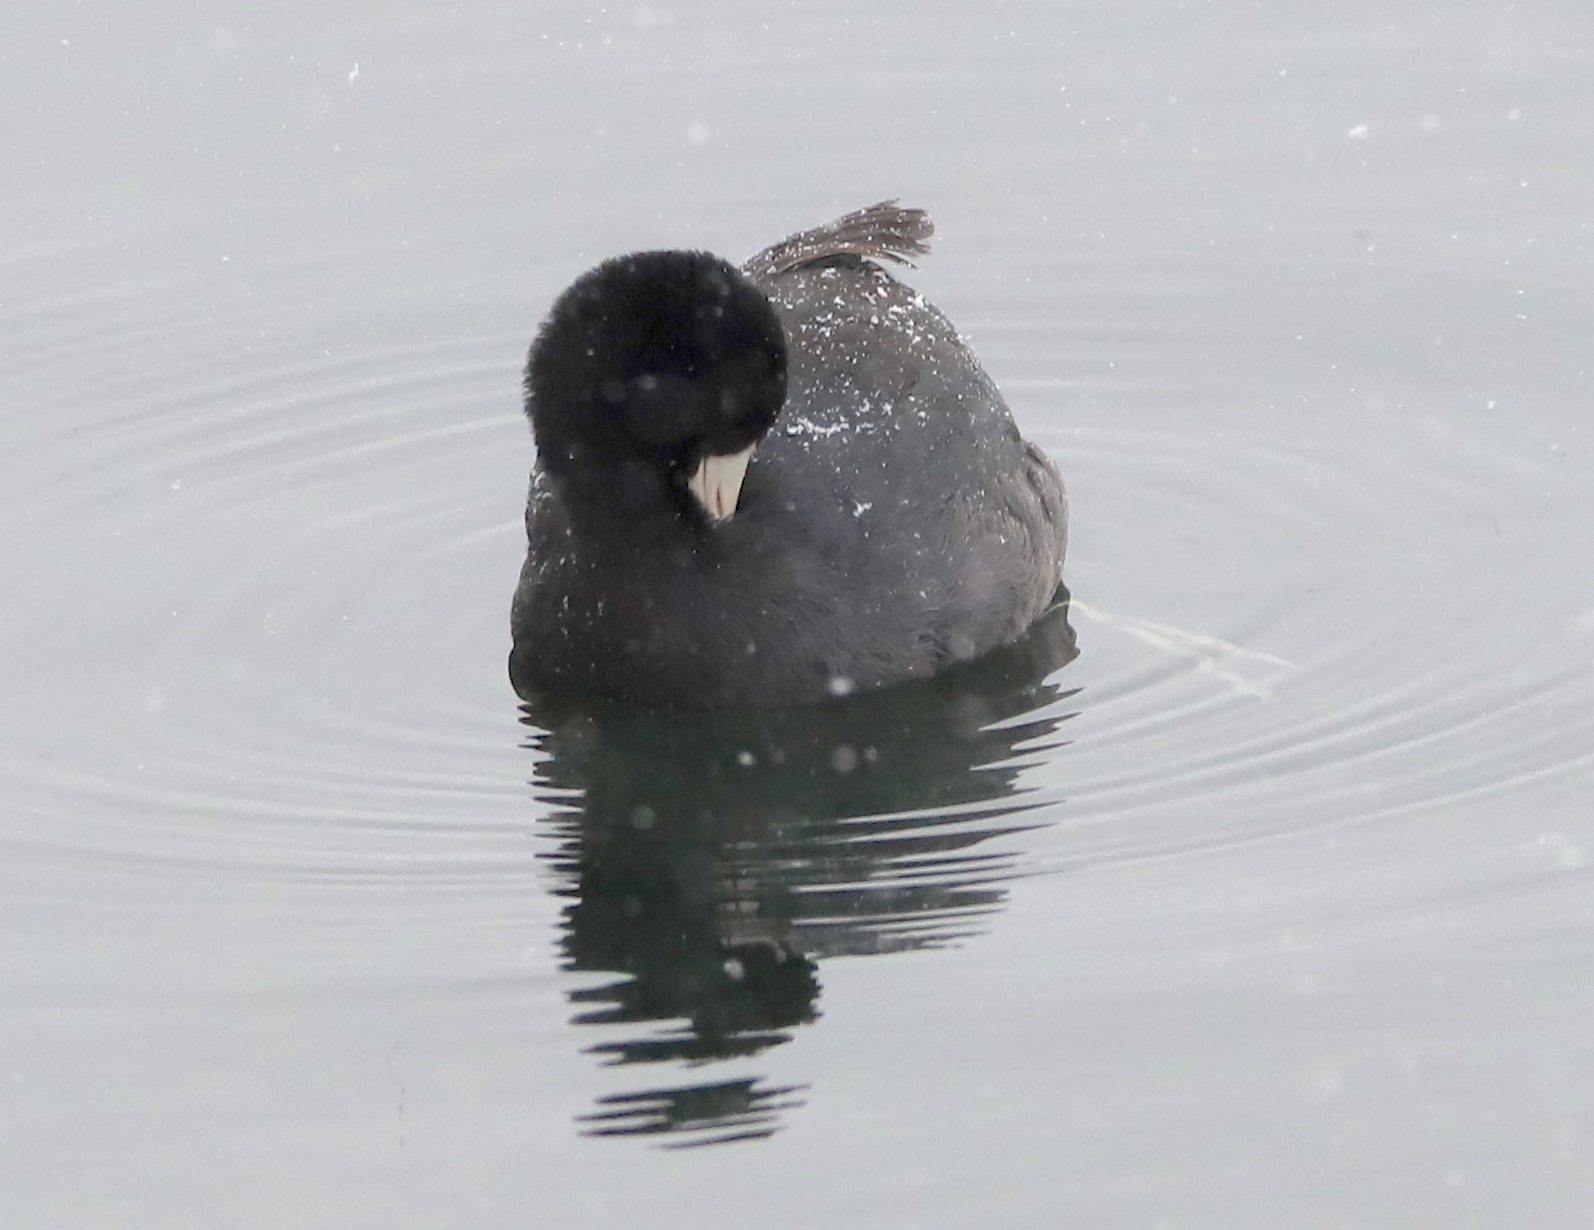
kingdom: Animalia
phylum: Chordata
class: Aves
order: Gruiformes
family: Rallidae
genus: Fulica
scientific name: Fulica americana
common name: American coot
